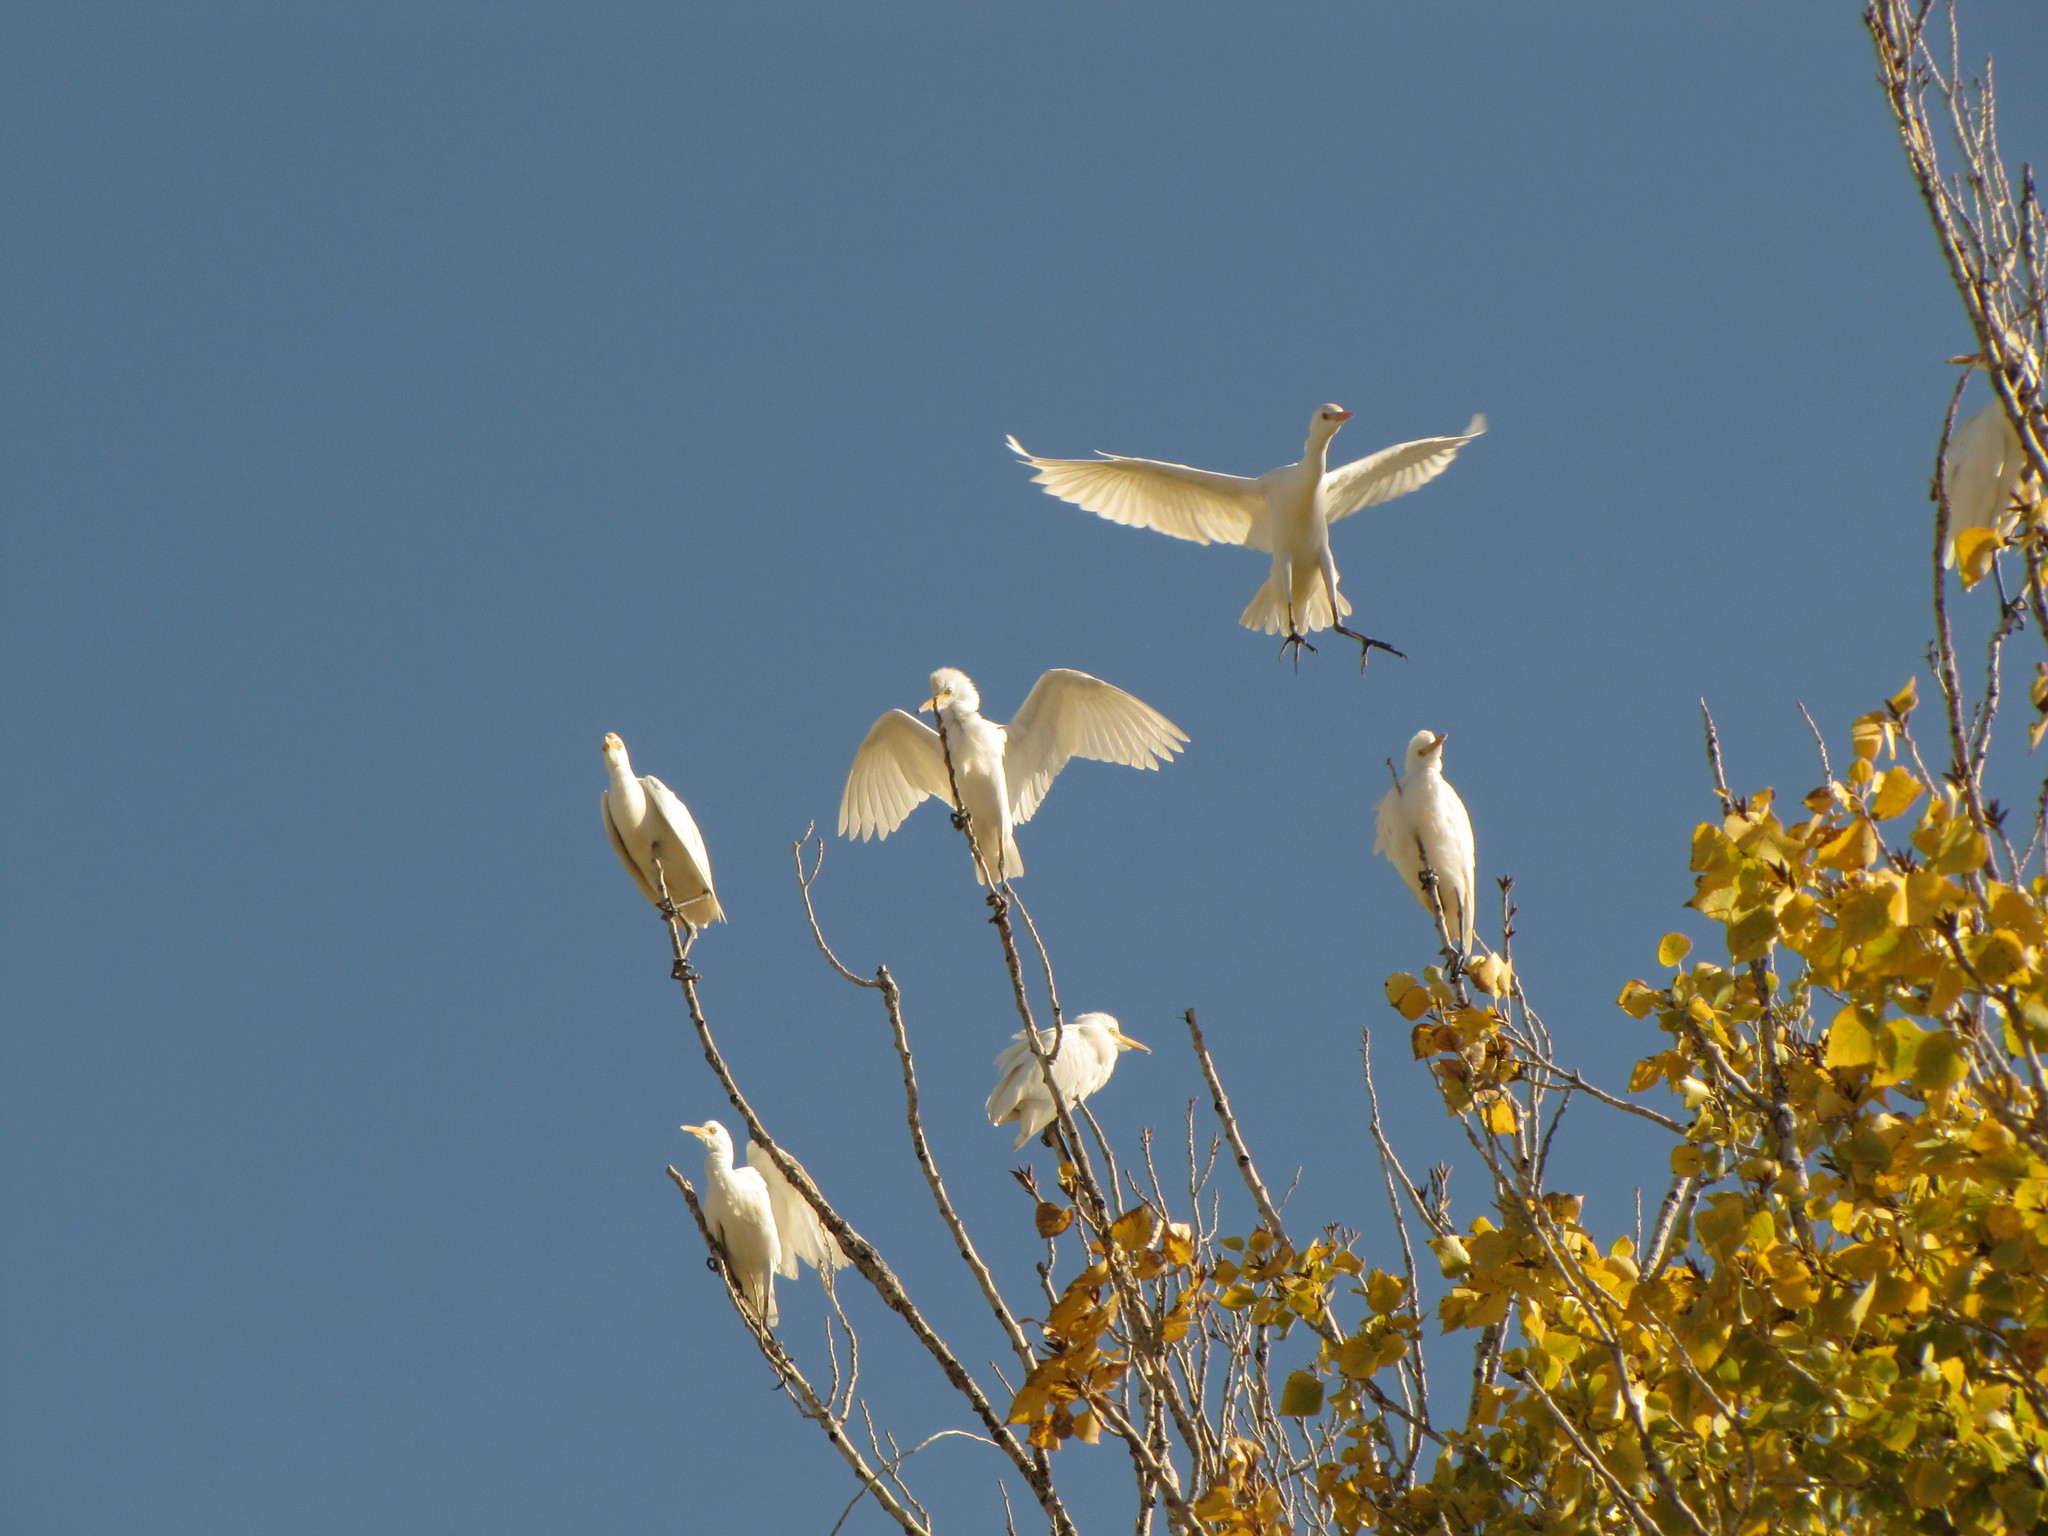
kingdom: Animalia
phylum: Chordata
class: Aves
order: Pelecaniformes
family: Ardeidae
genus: Bubulcus
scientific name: Bubulcus ibis
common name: Cattle egret
